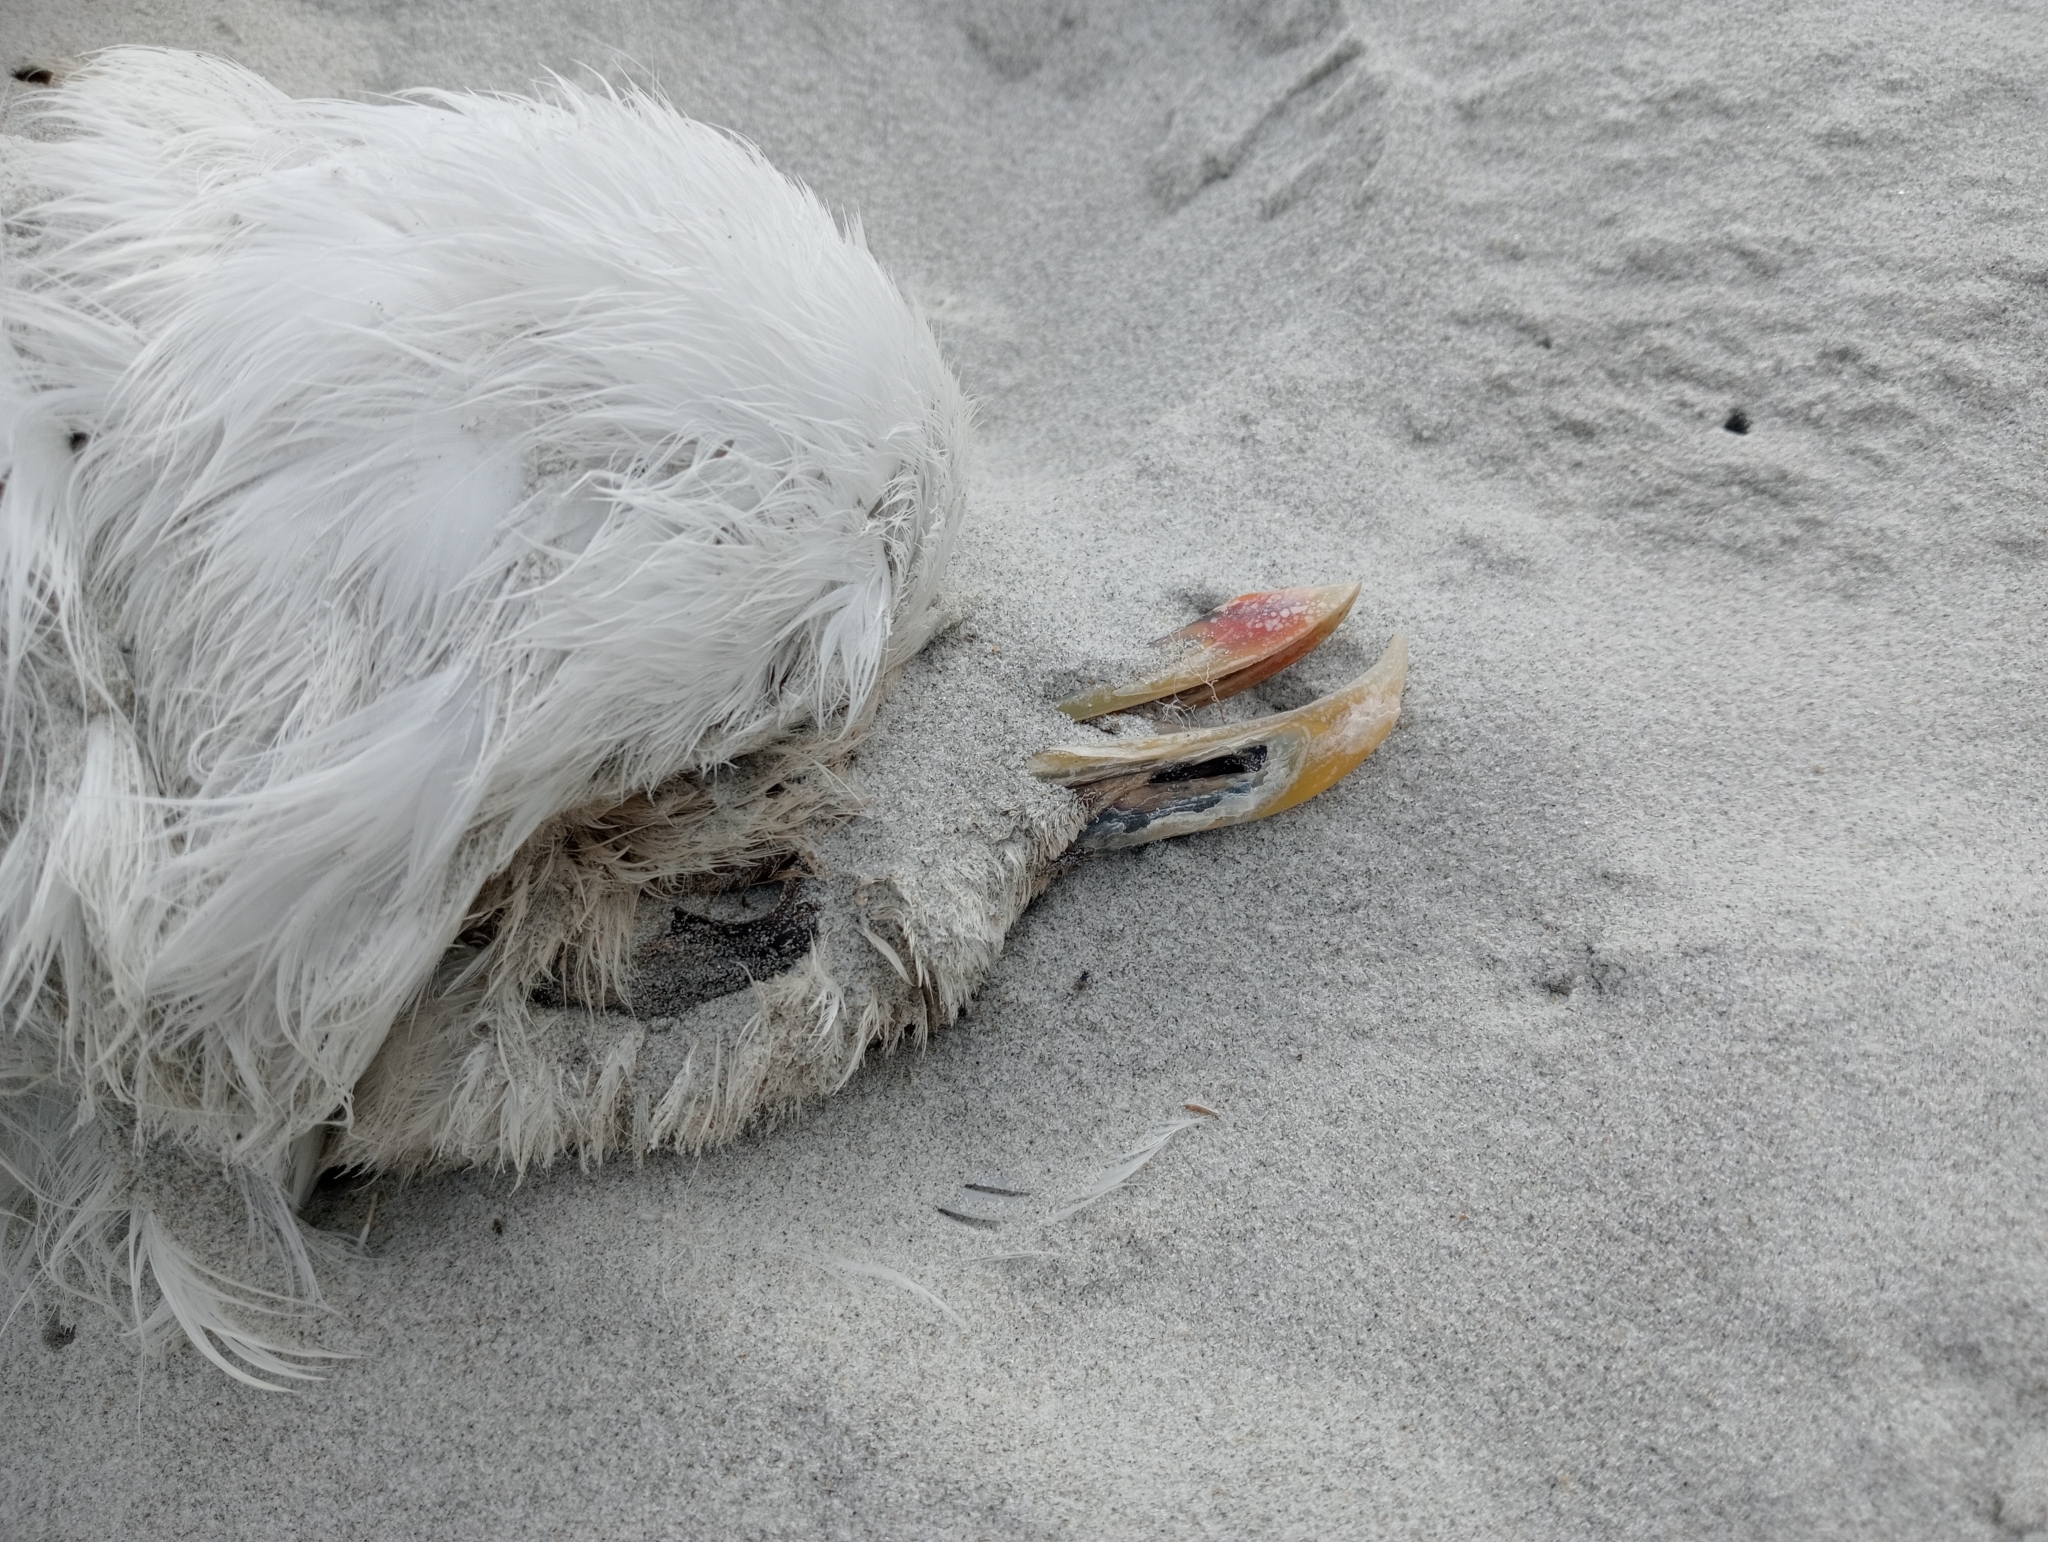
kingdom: Animalia
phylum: Chordata
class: Aves
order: Charadriiformes
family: Laridae
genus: Larus
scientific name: Larus dominicanus
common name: Kelp gull
